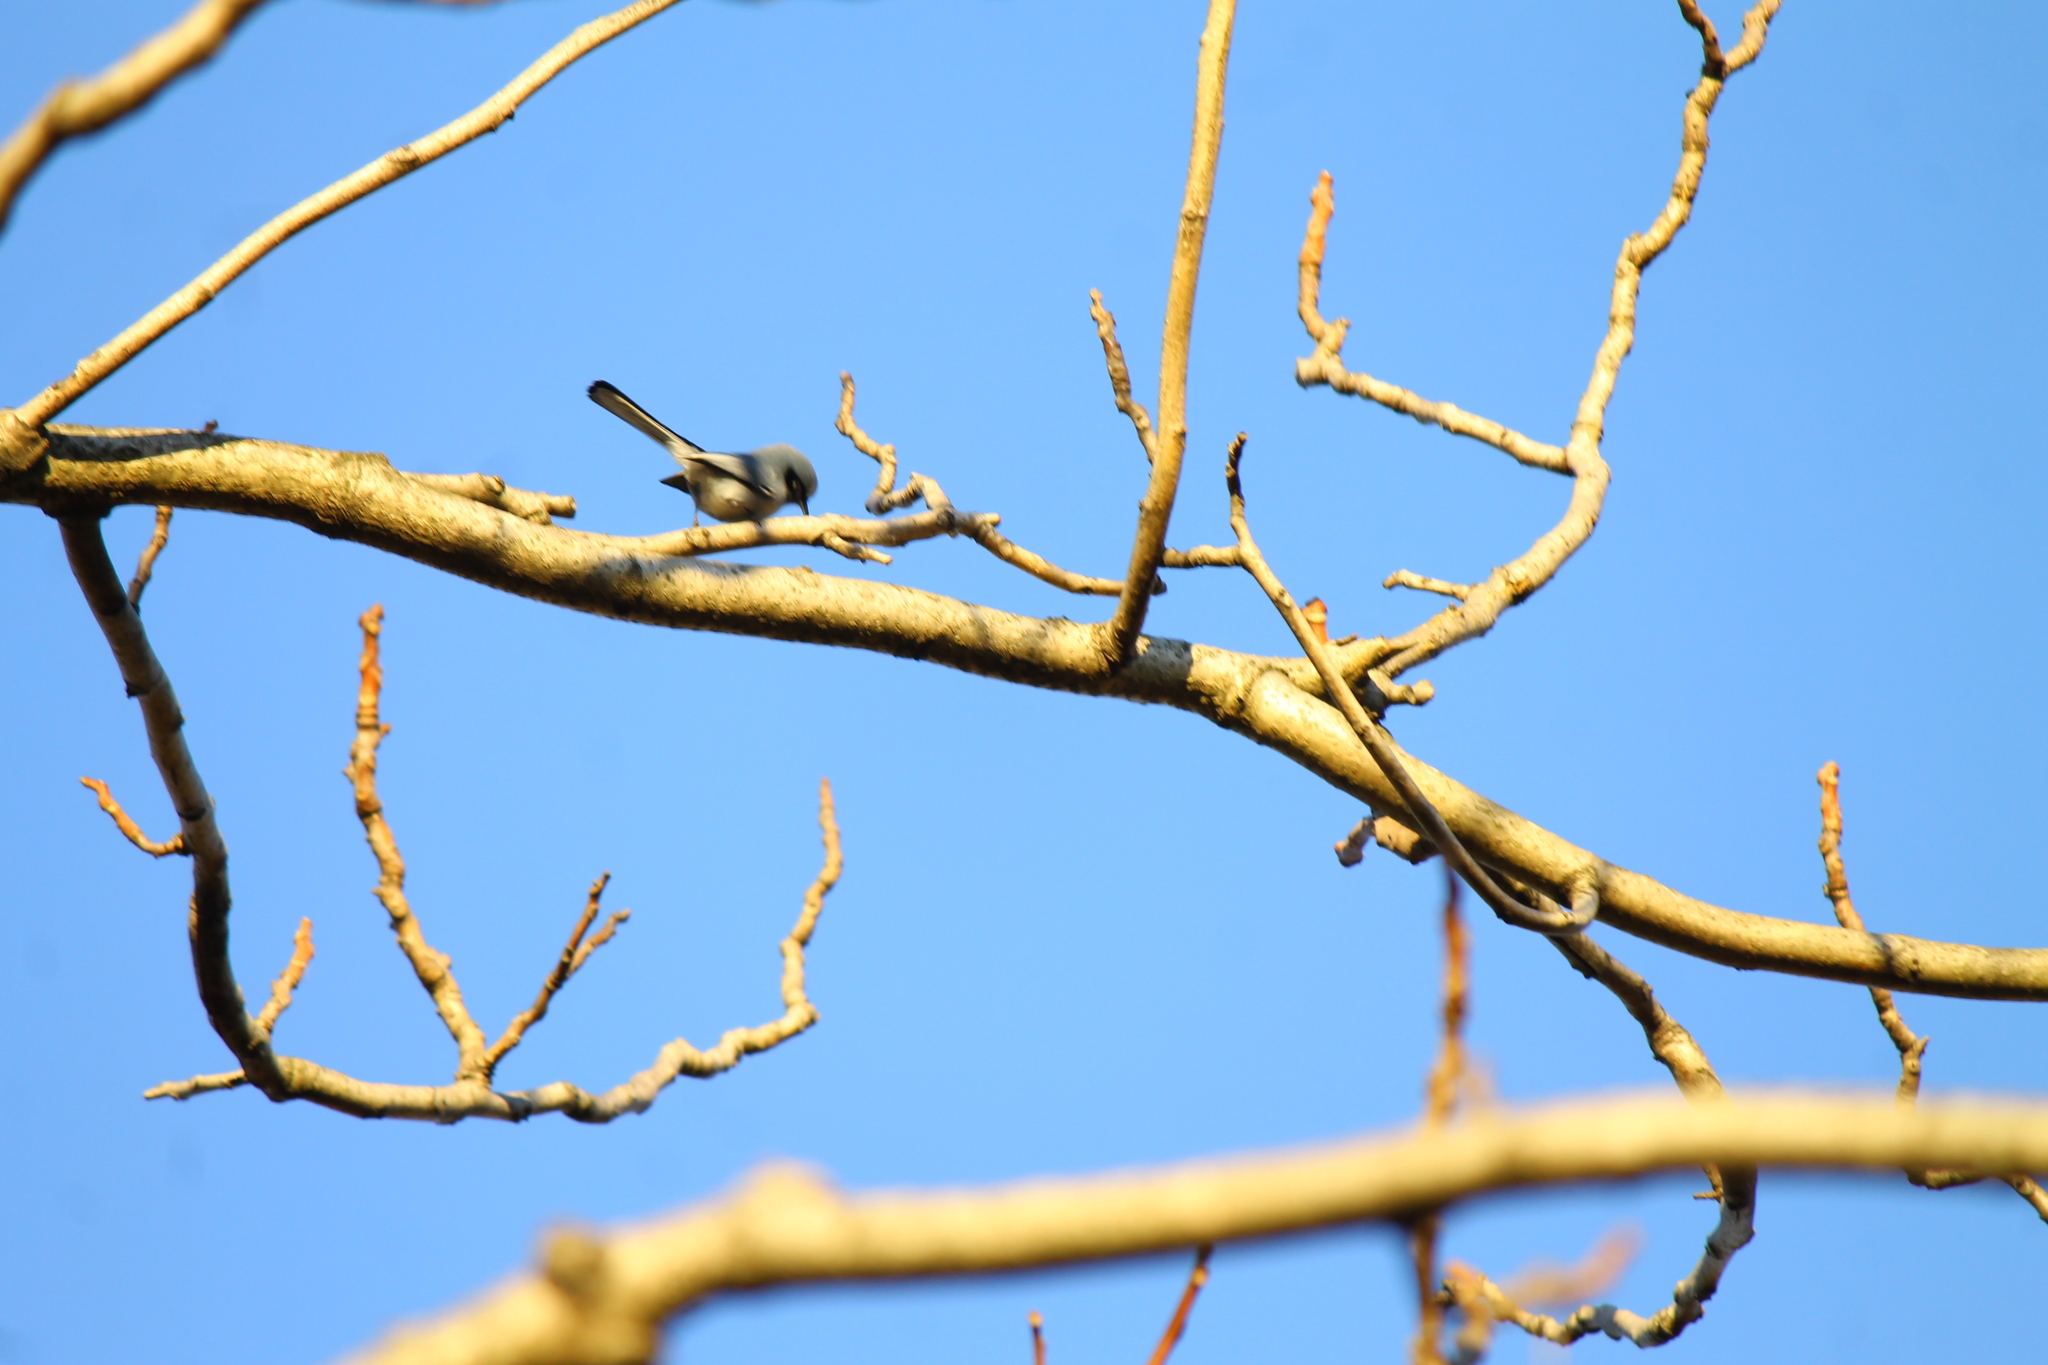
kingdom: Animalia
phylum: Chordata
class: Aves
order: Passeriformes
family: Polioptilidae
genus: Polioptila
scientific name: Polioptila dumicola
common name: Masked gnatcatcher
